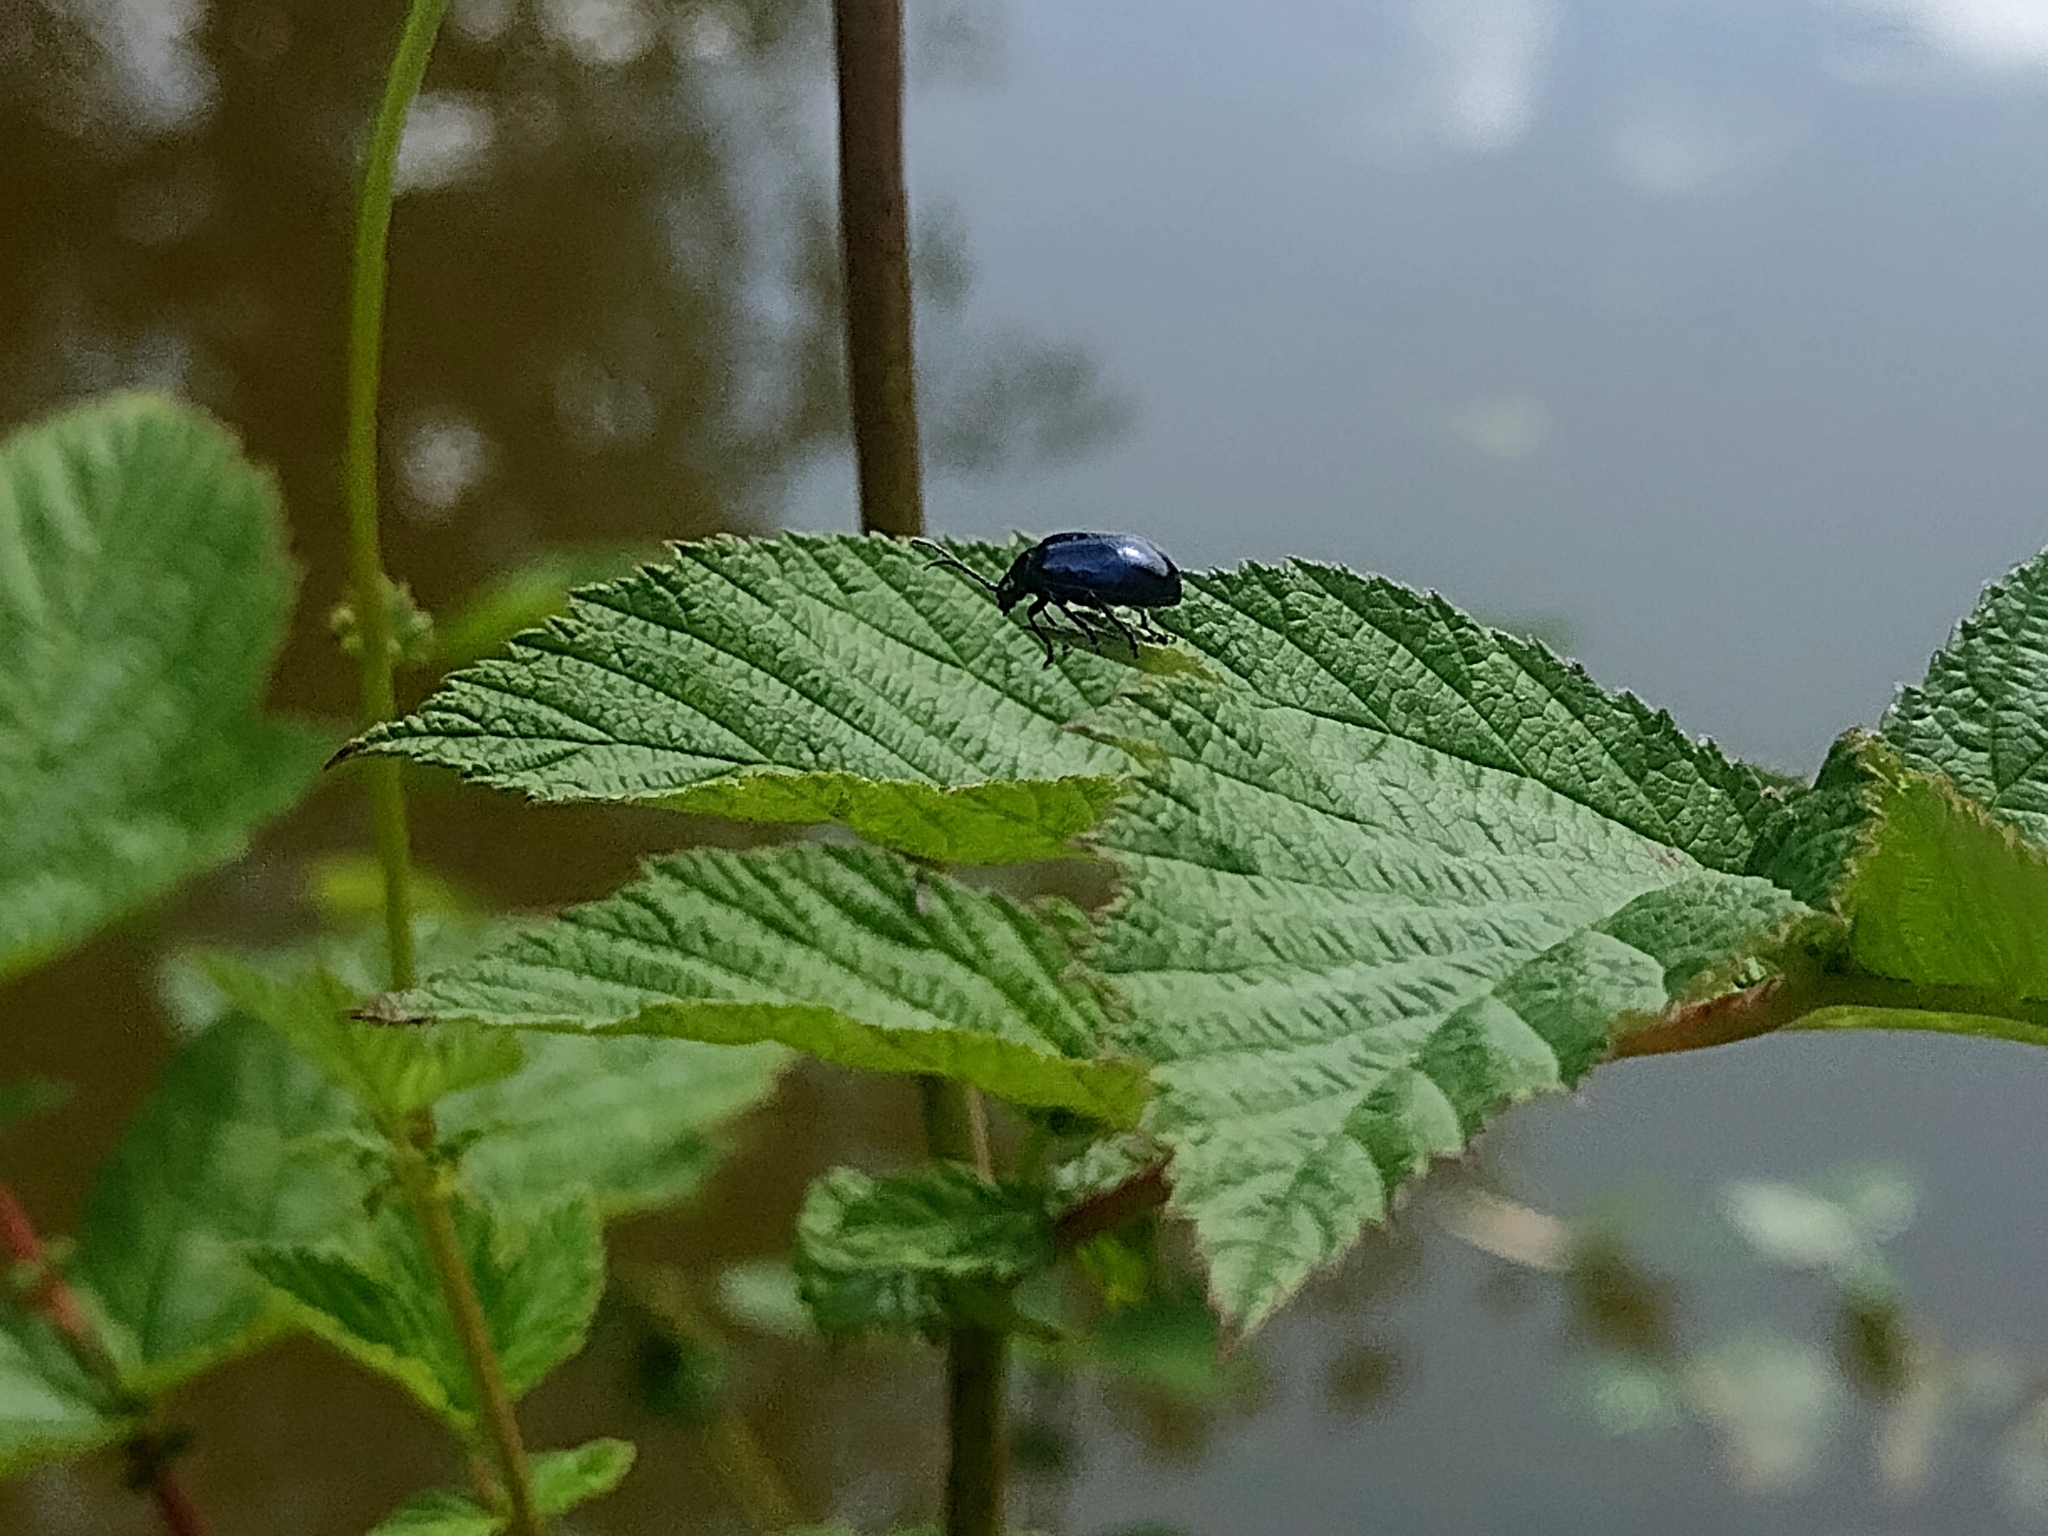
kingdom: Animalia
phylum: Arthropoda
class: Insecta
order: Coleoptera
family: Chrysomelidae
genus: Agelastica
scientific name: Agelastica alni
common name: Alder leaf beetle
